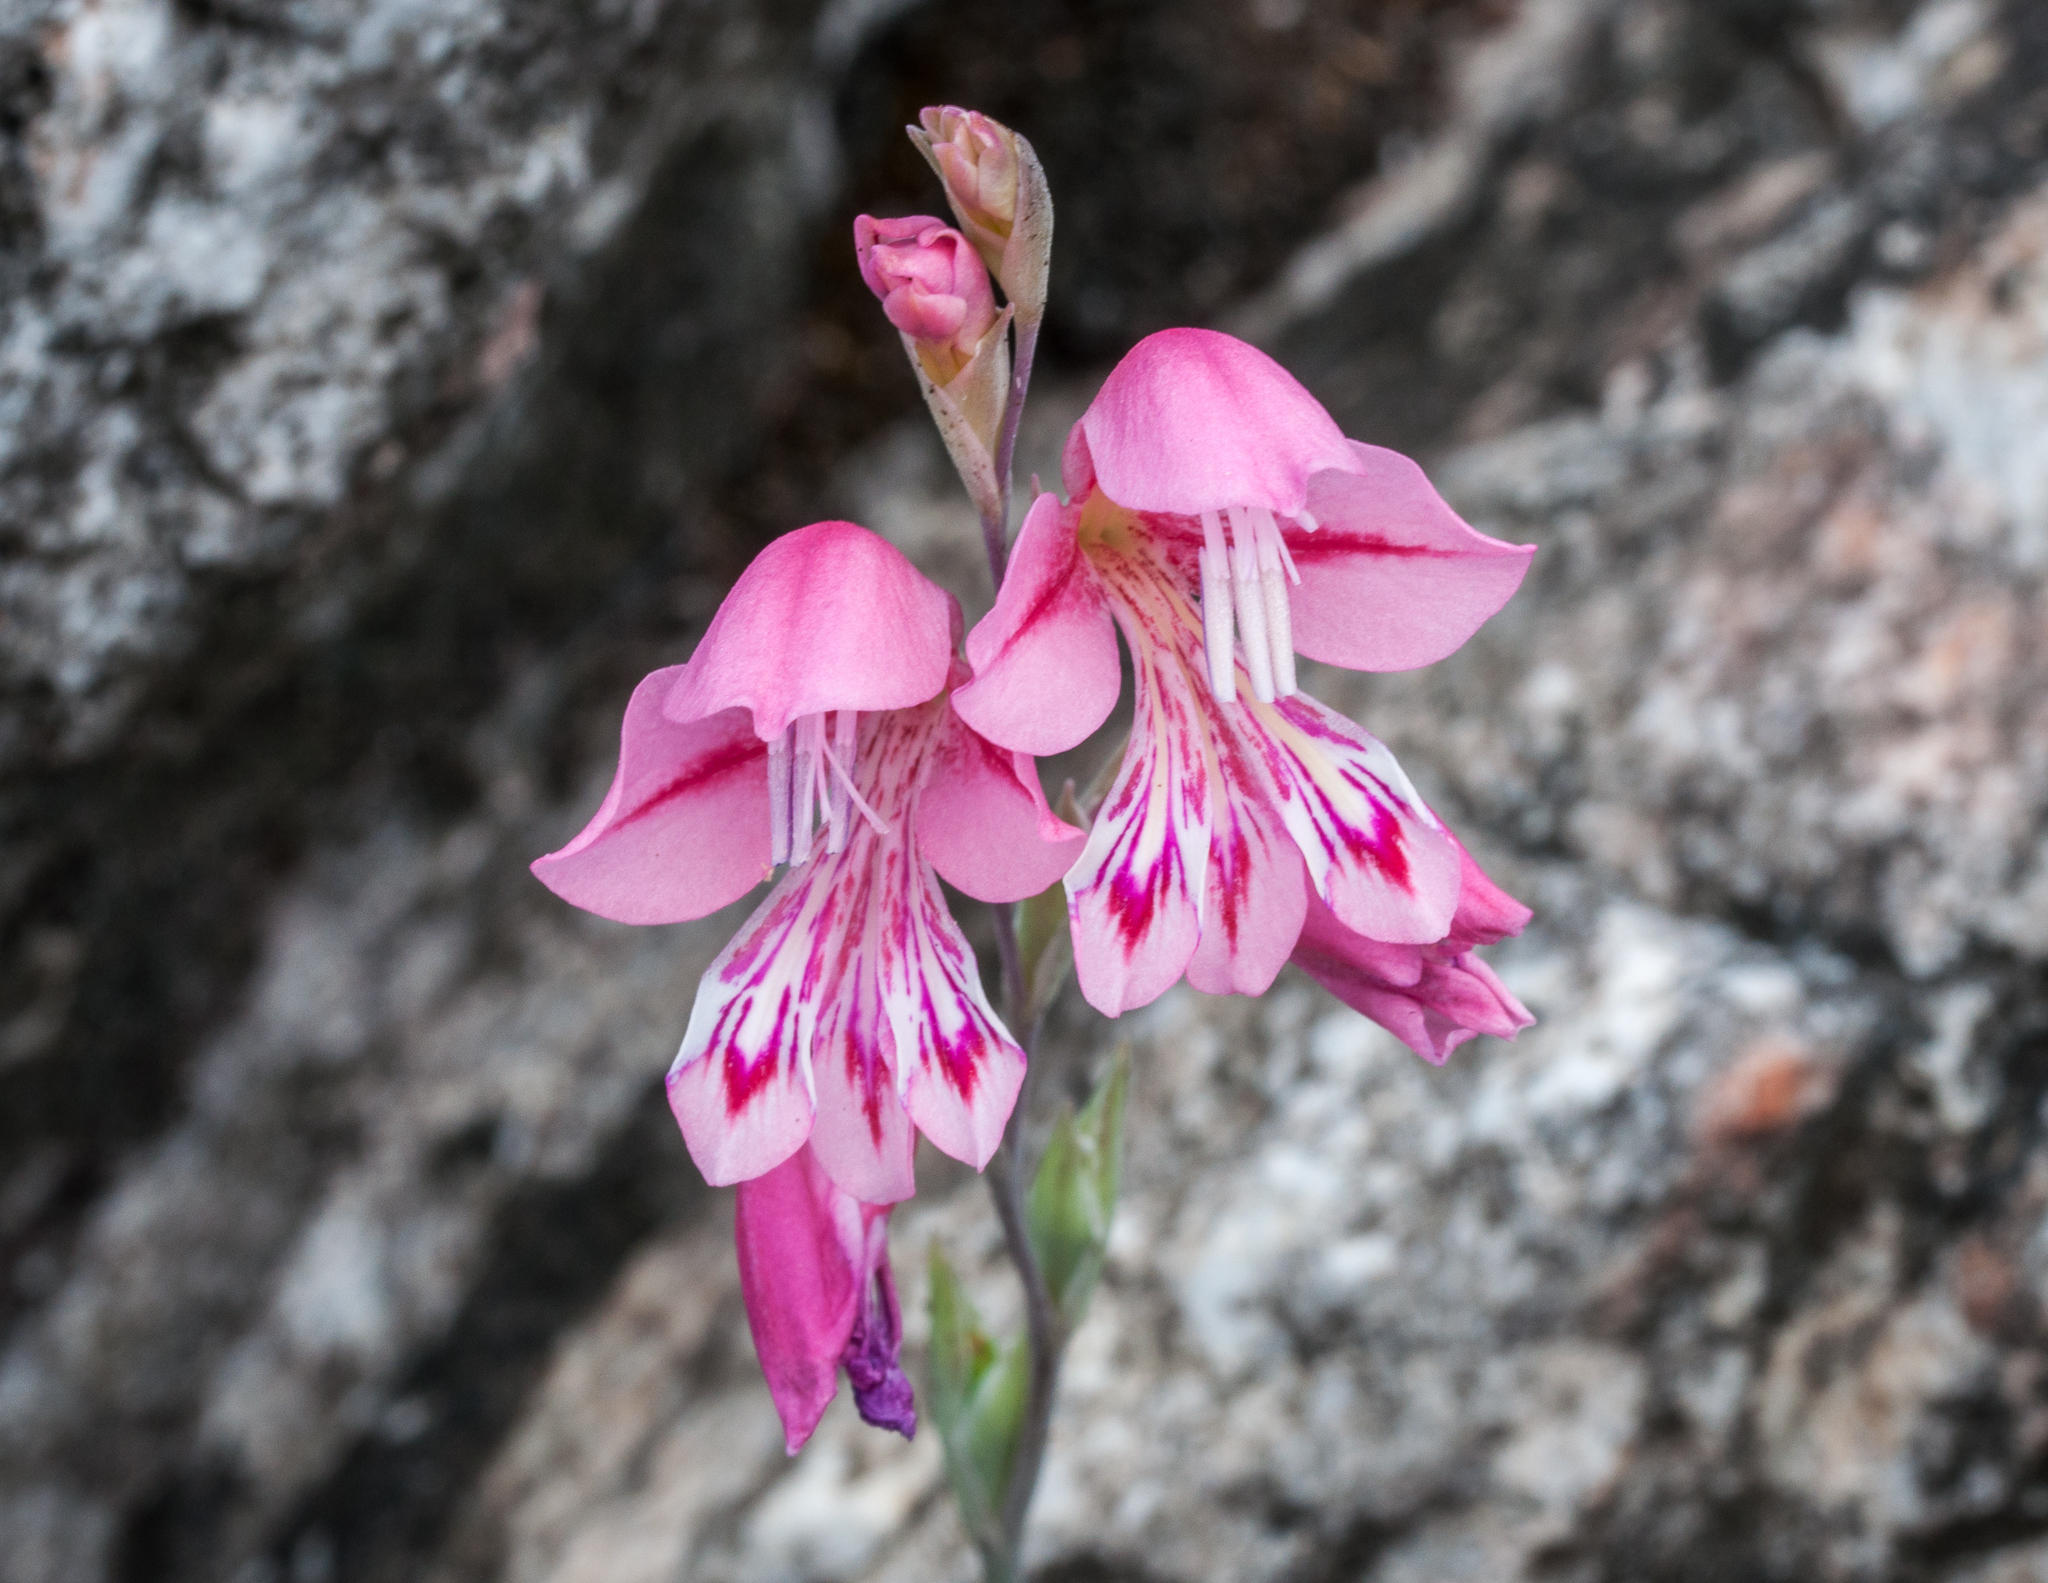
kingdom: Plantae
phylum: Tracheophyta
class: Liliopsida
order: Asparagales
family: Iridaceae
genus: Gladiolus
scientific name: Gladiolus brevifolius
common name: March pypie
